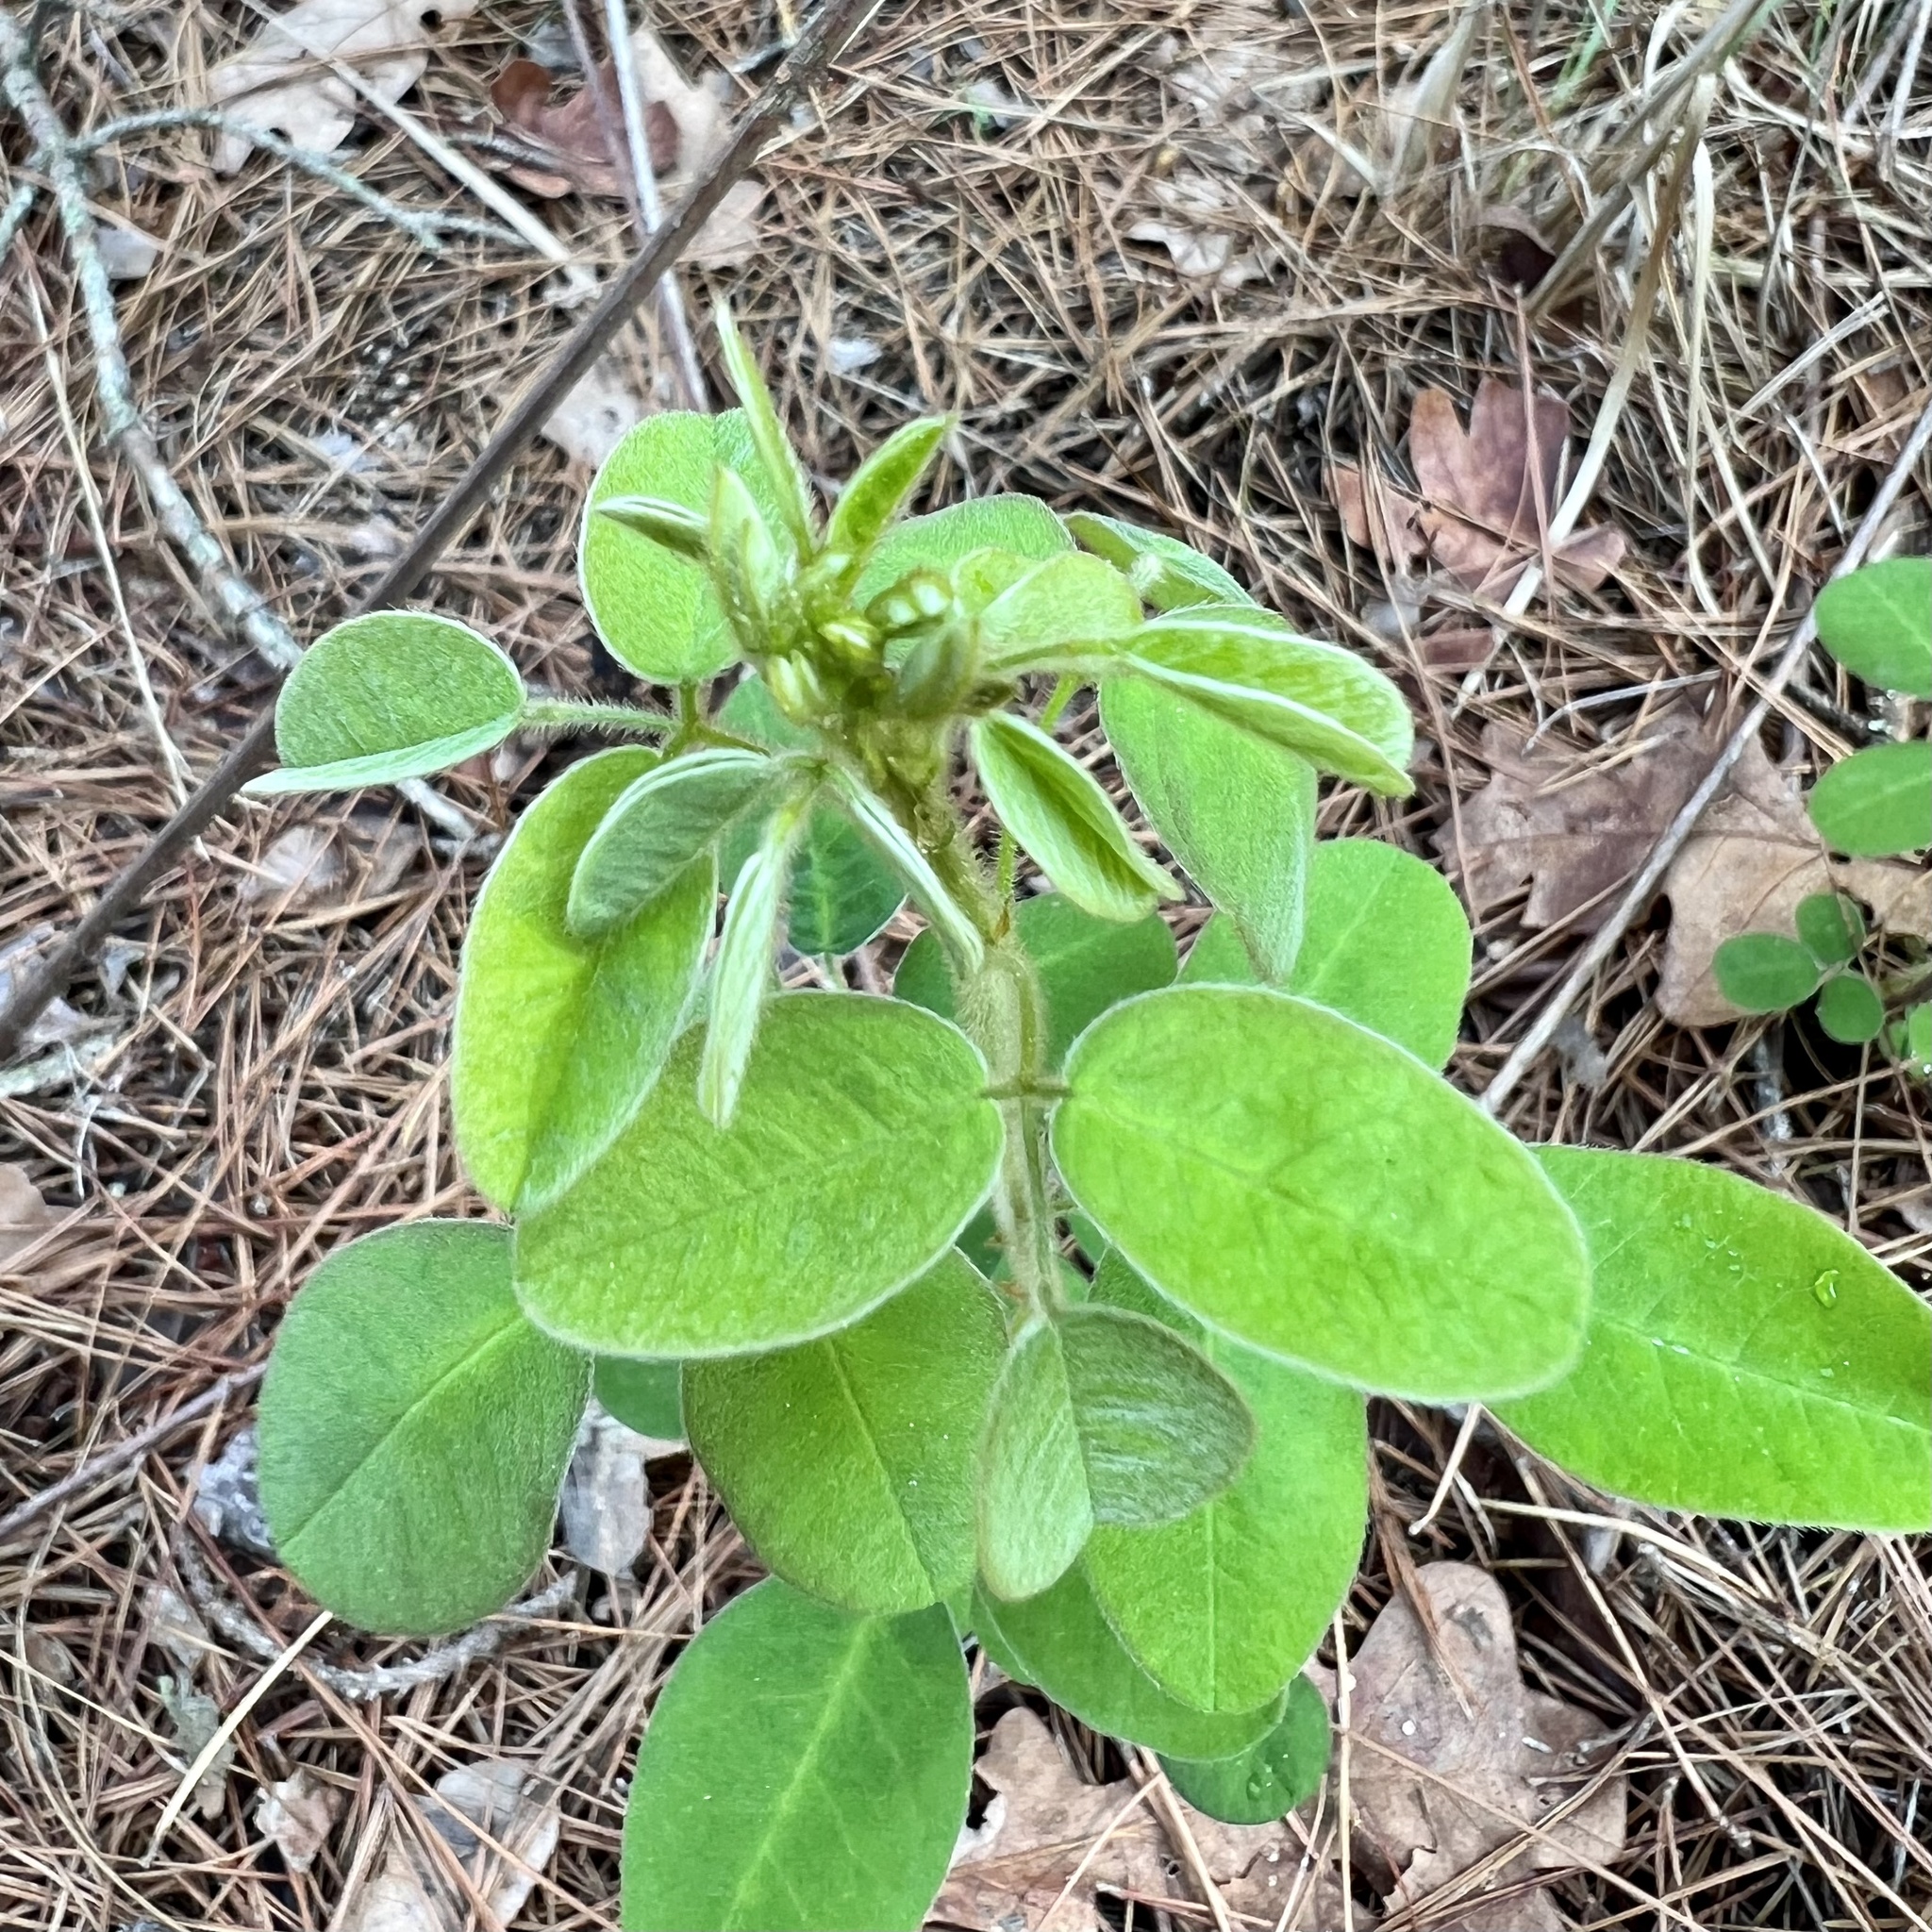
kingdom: Plantae
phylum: Tracheophyta
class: Magnoliopsida
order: Fabales
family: Fabaceae
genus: Lespedeza
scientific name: Lespedeza hirta
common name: Hairy lespedeza
